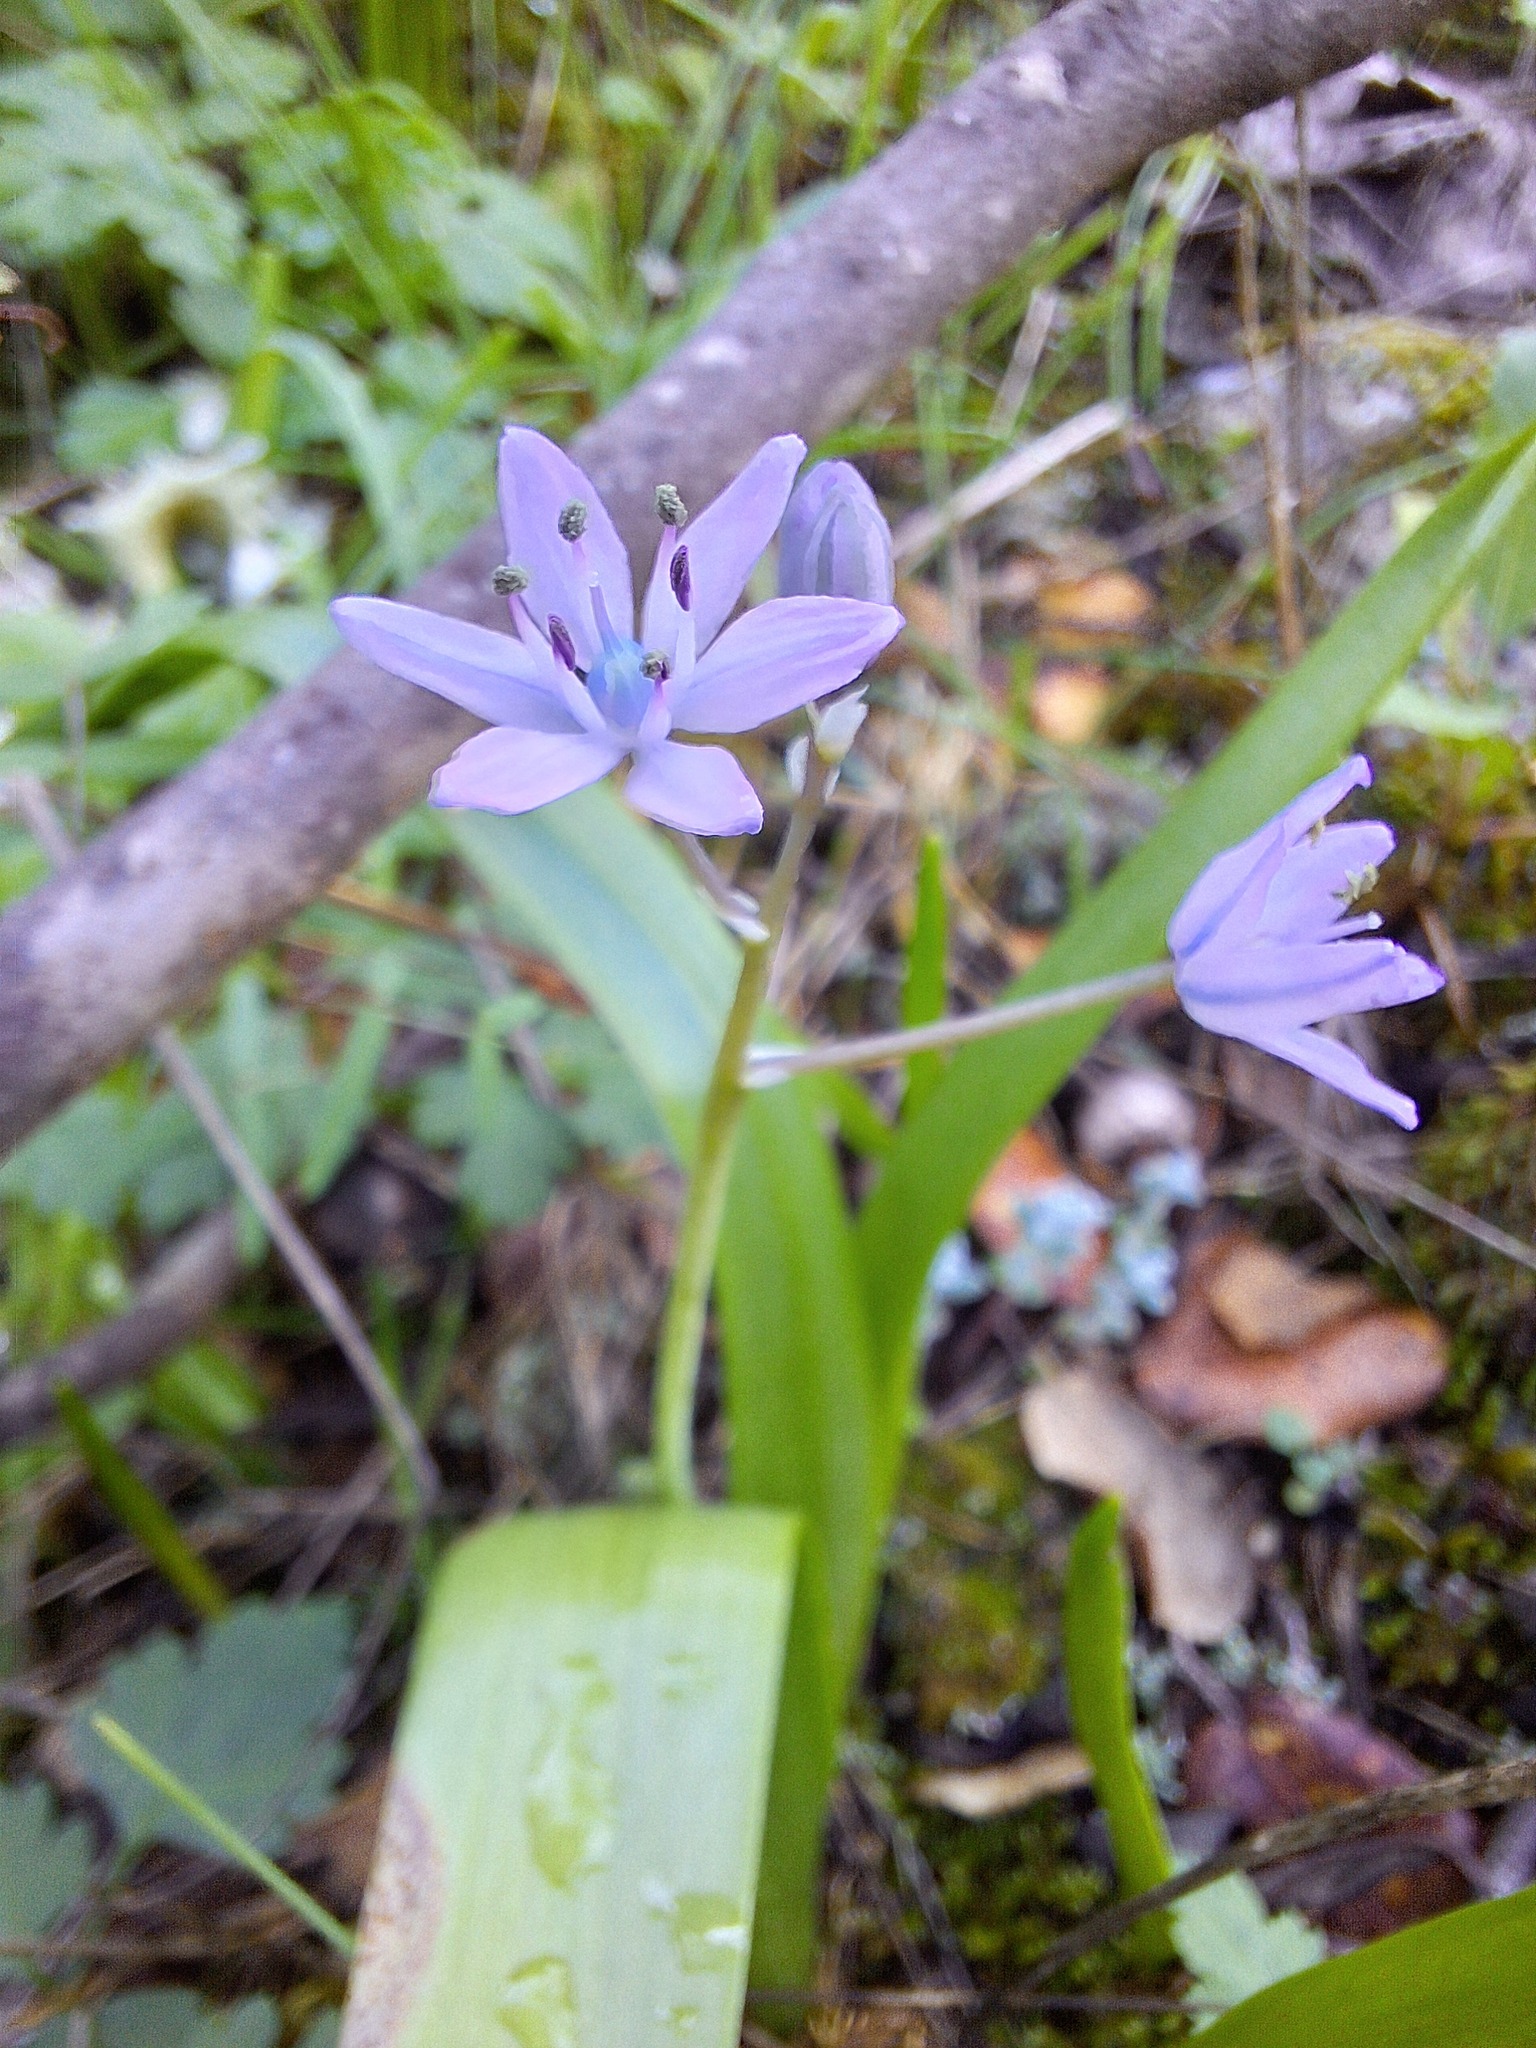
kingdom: Plantae
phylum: Tracheophyta
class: Liliopsida
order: Asparagales
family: Asparagaceae
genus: Scilla
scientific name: Scilla monophyllos
